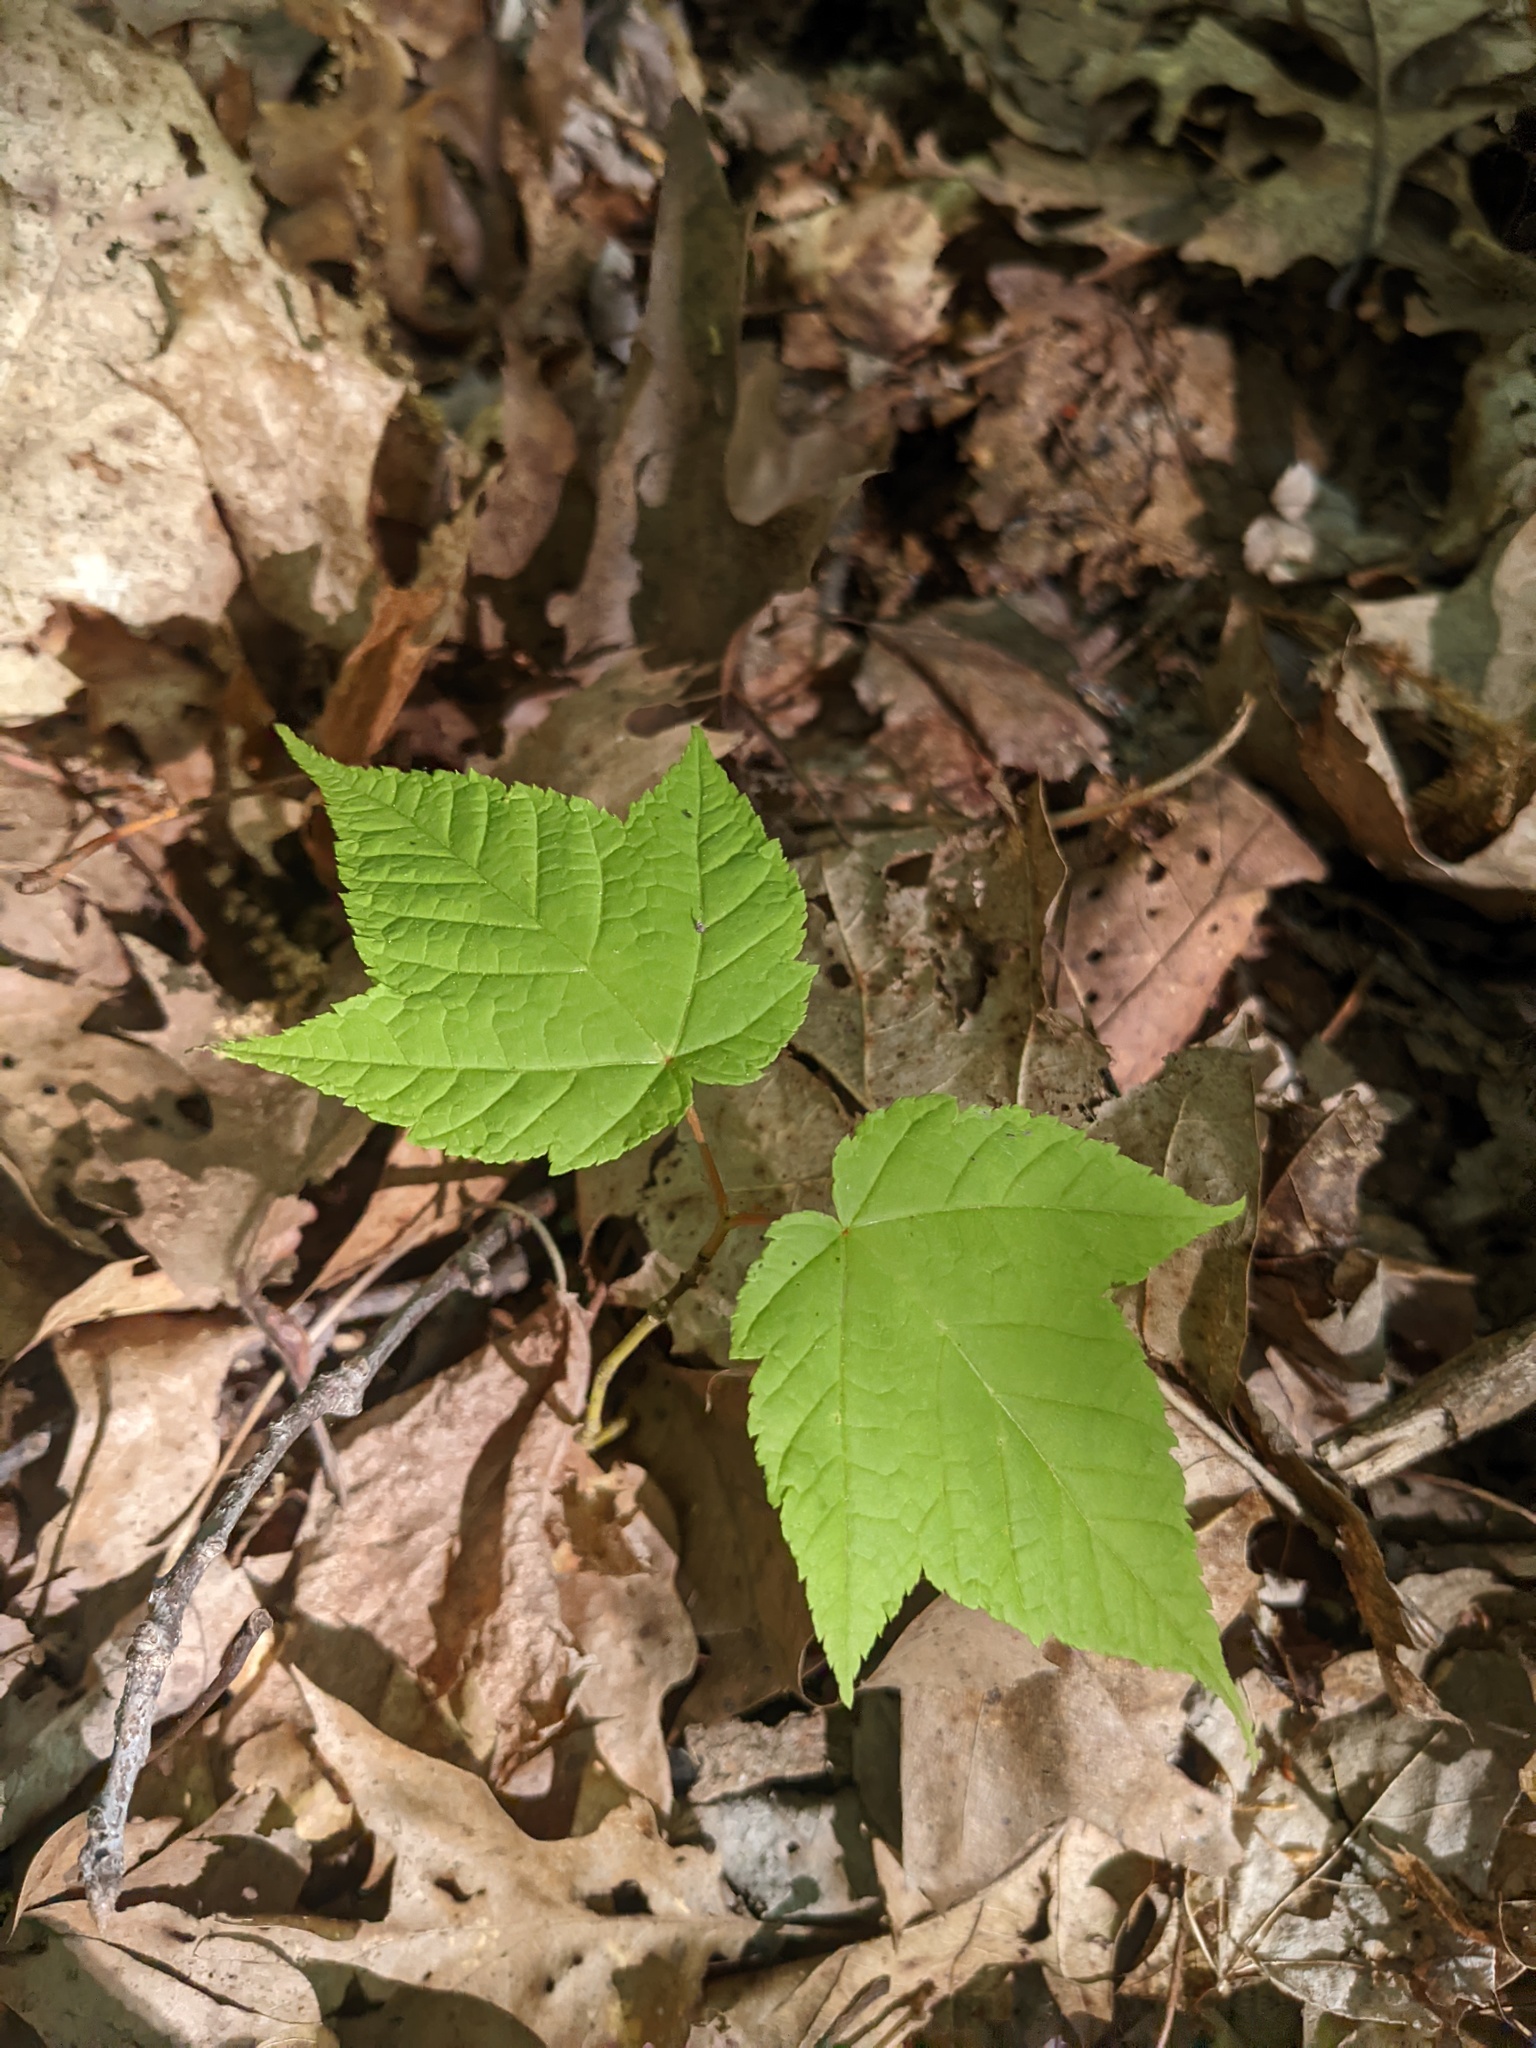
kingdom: Plantae
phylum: Tracheophyta
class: Magnoliopsida
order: Sapindales
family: Sapindaceae
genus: Acer
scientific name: Acer pensylvanicum
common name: Moosewood
